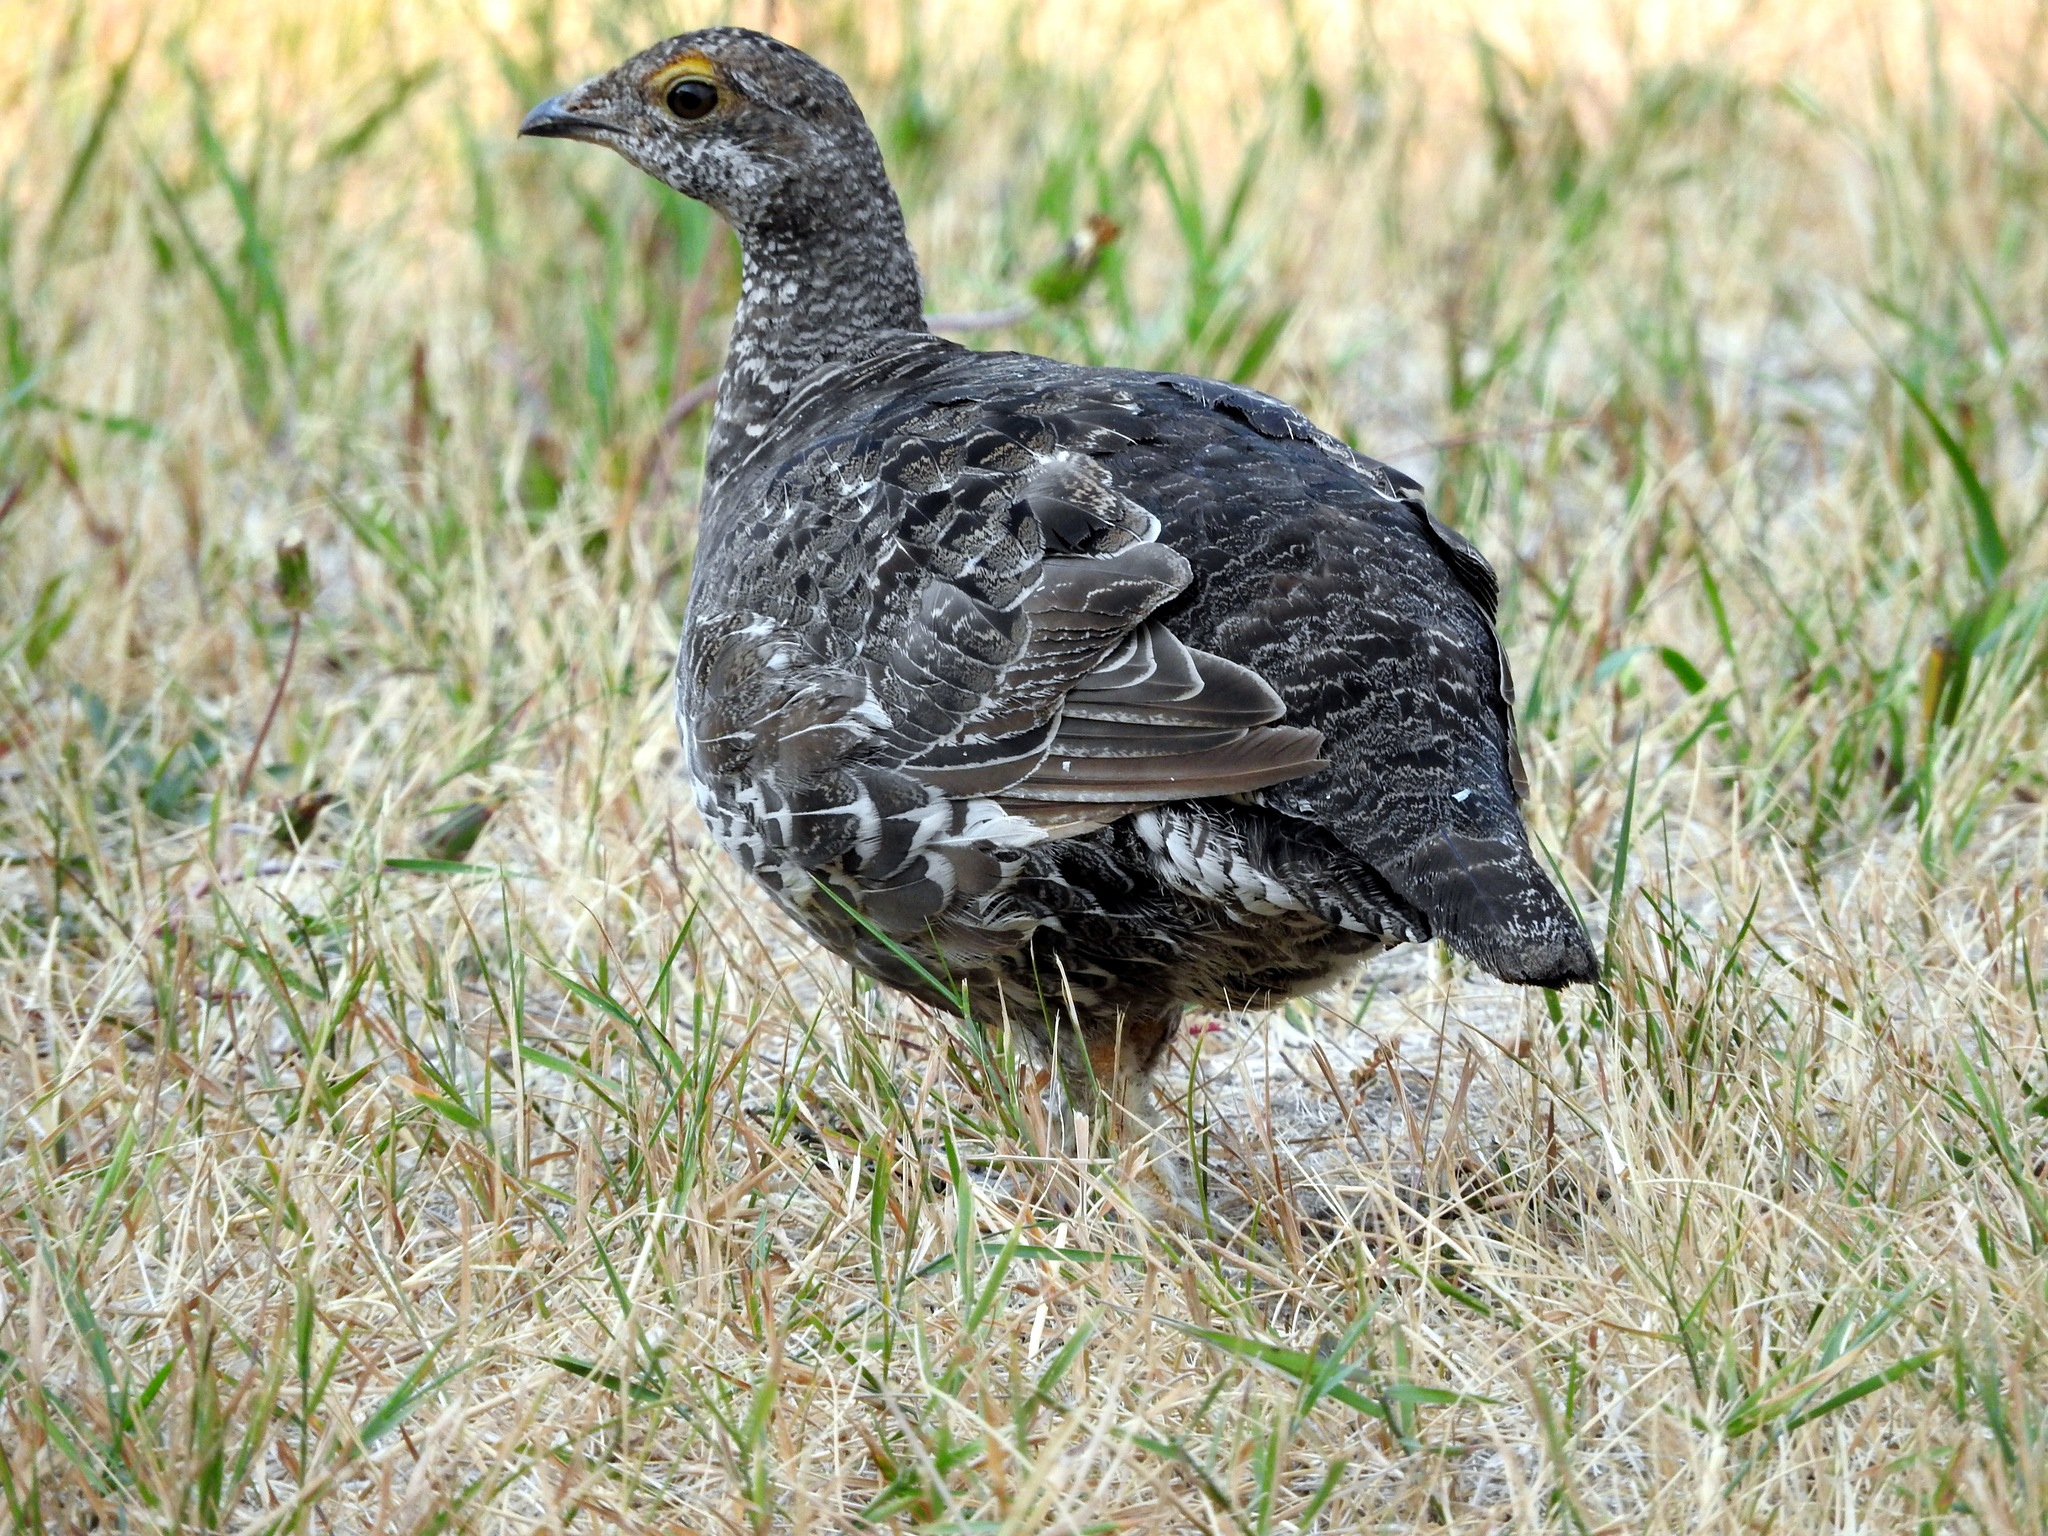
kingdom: Animalia
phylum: Chordata
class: Aves
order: Galliformes
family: Phasianidae
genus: Dendragapus
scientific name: Dendragapus obscurus
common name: Dusky grouse
